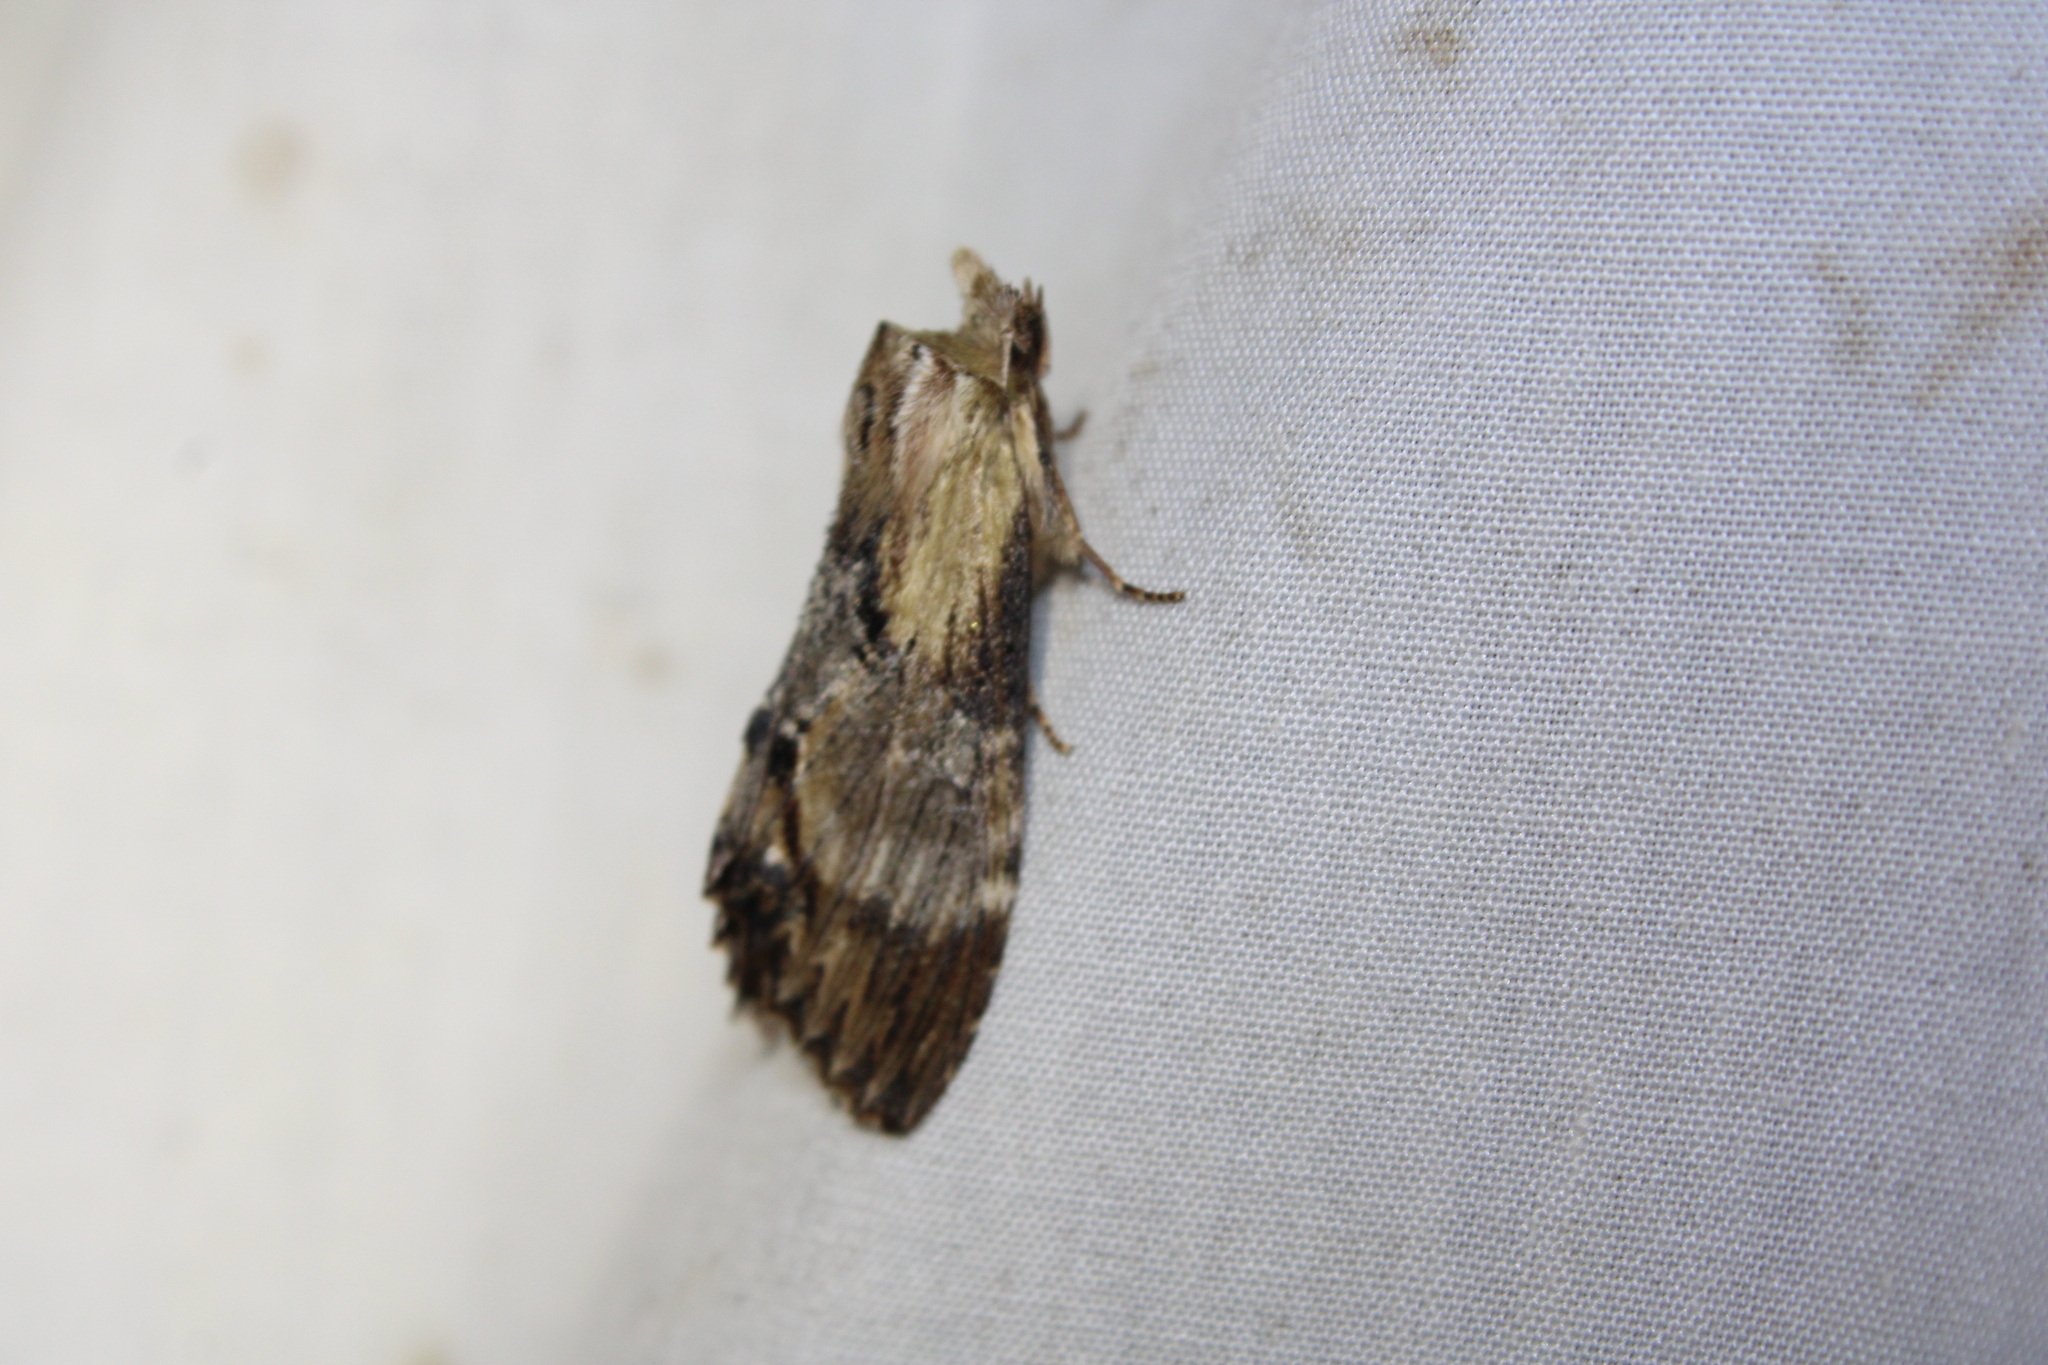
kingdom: Animalia
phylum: Arthropoda
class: Insecta
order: Lepidoptera
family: Notodontidae
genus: Dasylophia
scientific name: Dasylophia thyatiroides
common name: Gray-patched prominent
